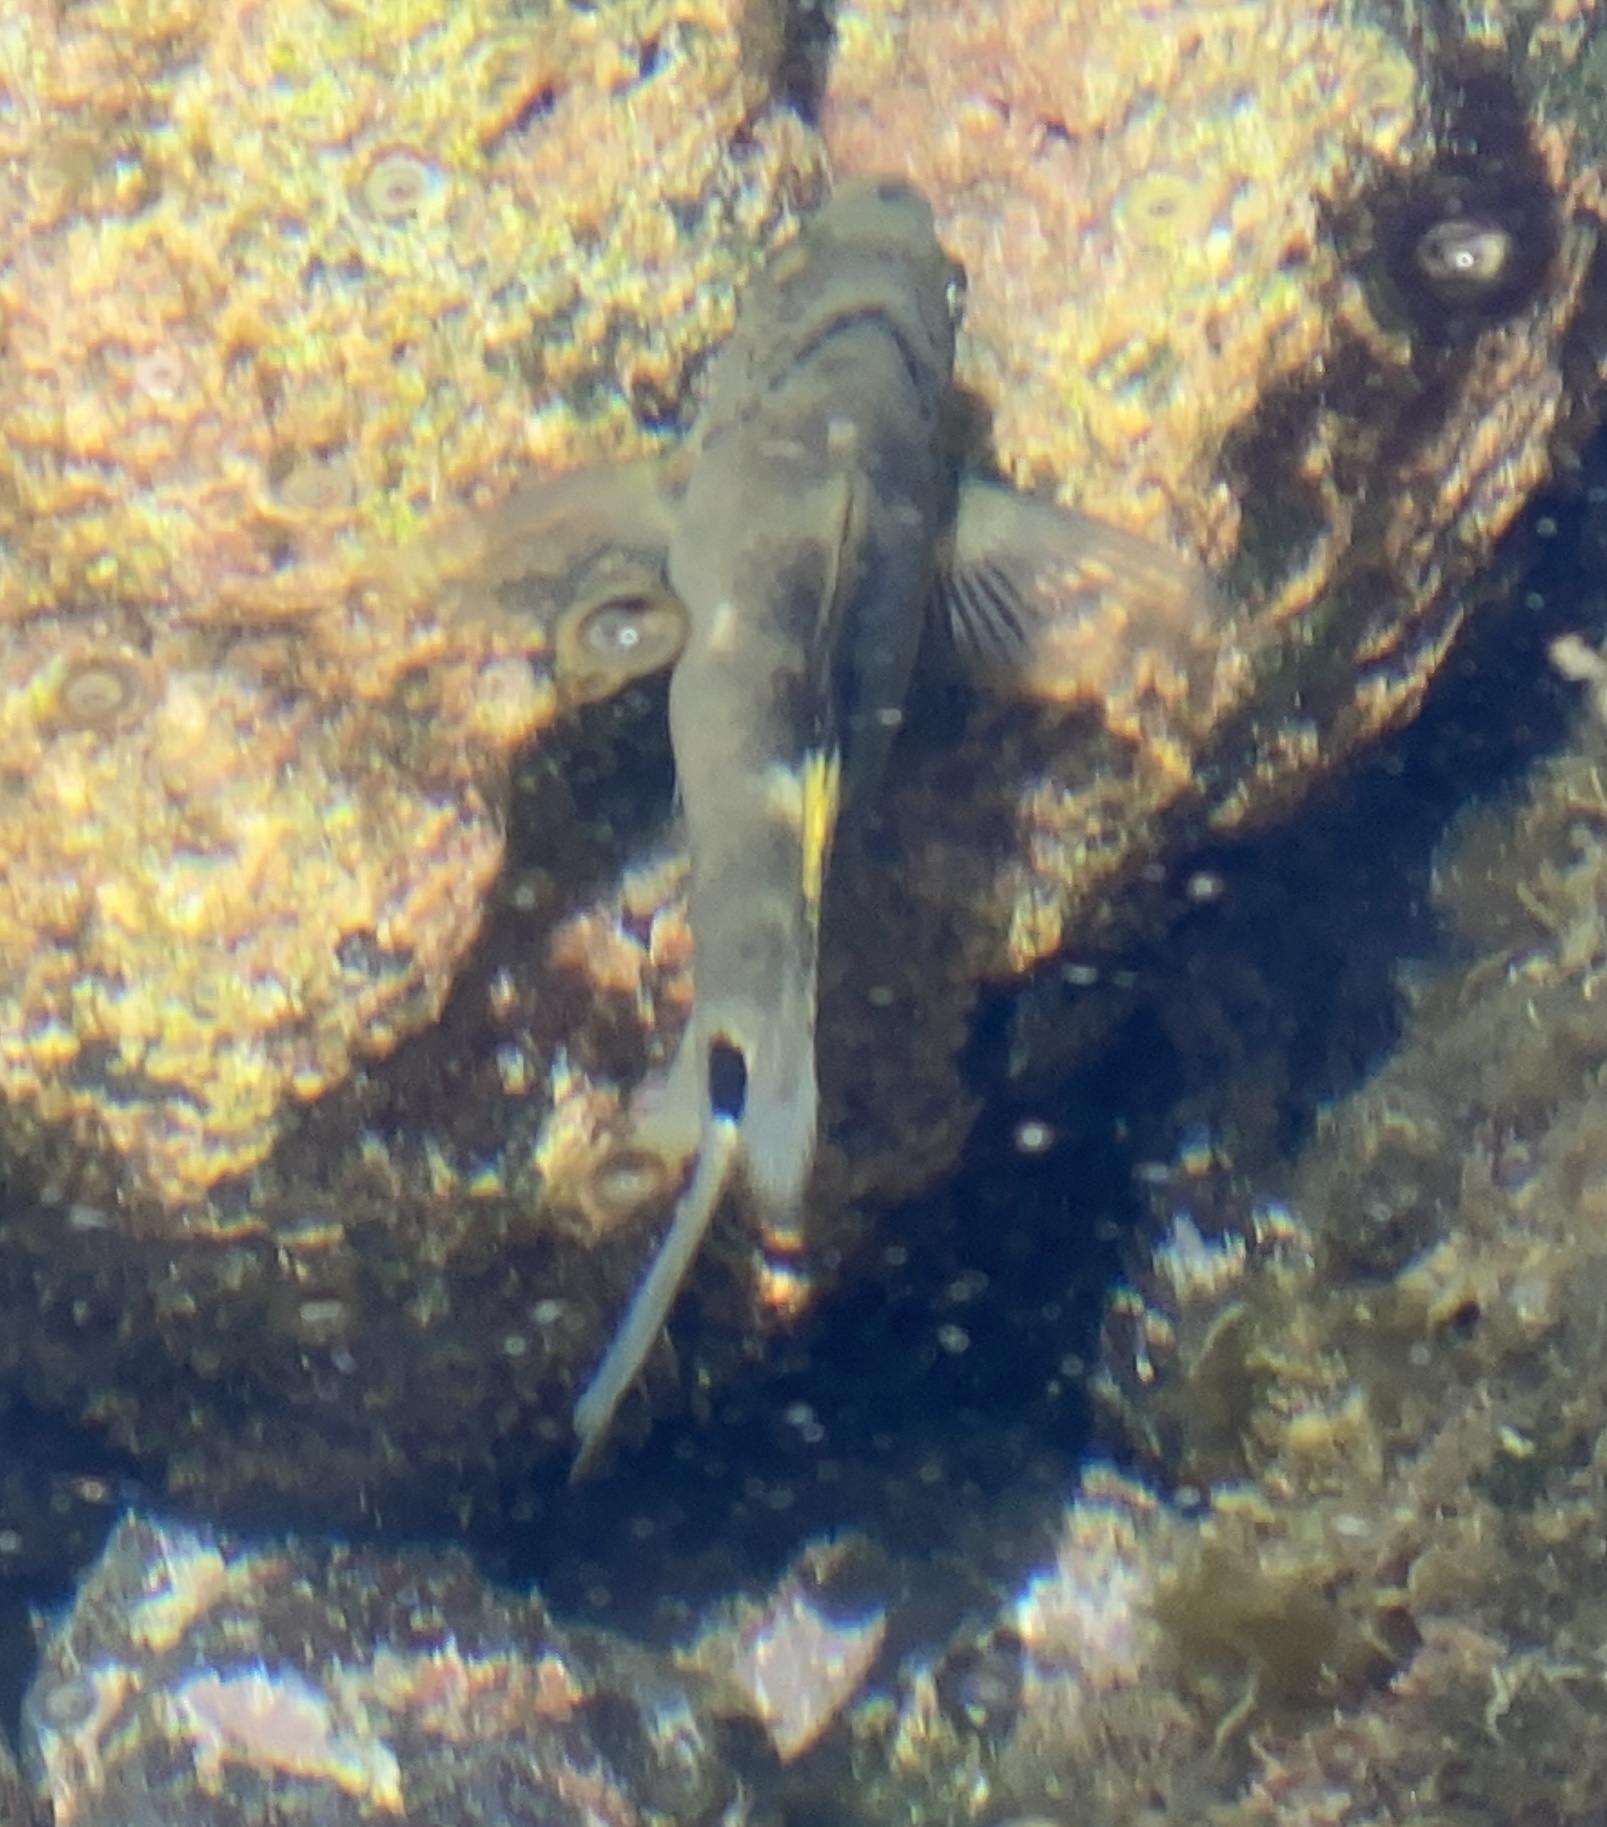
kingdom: Animalia
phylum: Chordata
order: Perciformes
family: Pomacentridae
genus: Abudefduf
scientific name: Abudefduf sordidus
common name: Blackspot sergeant
